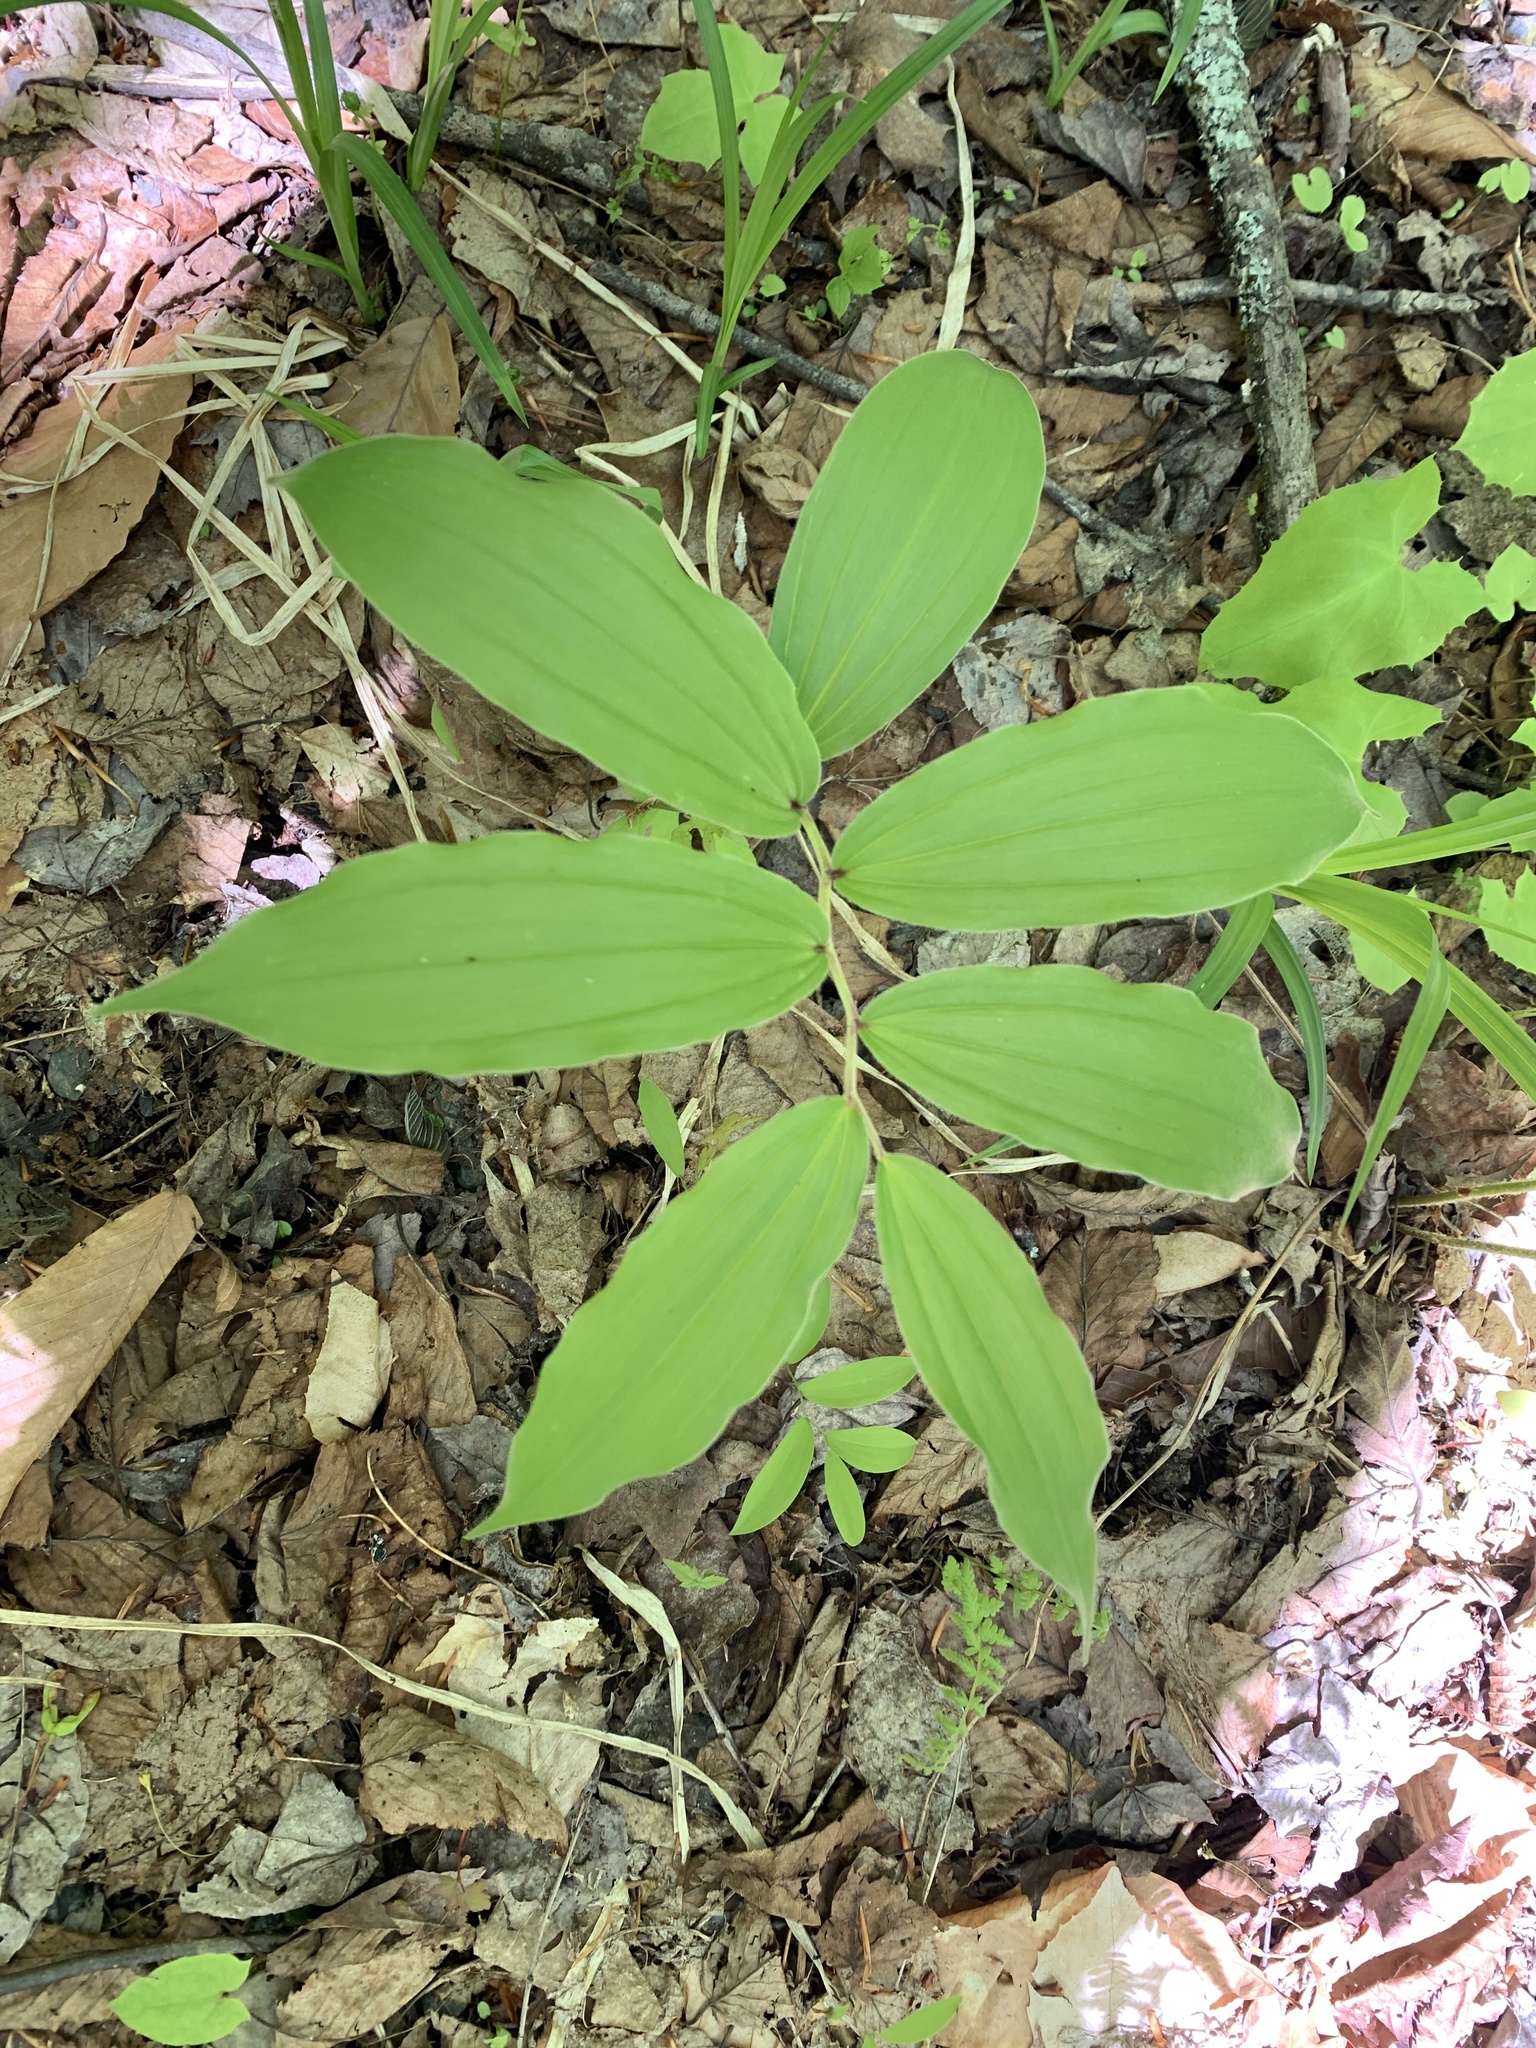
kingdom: Plantae
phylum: Tracheophyta
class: Liliopsida
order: Asparagales
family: Asparagaceae
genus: Maianthemum
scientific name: Maianthemum racemosum
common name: False spikenard
